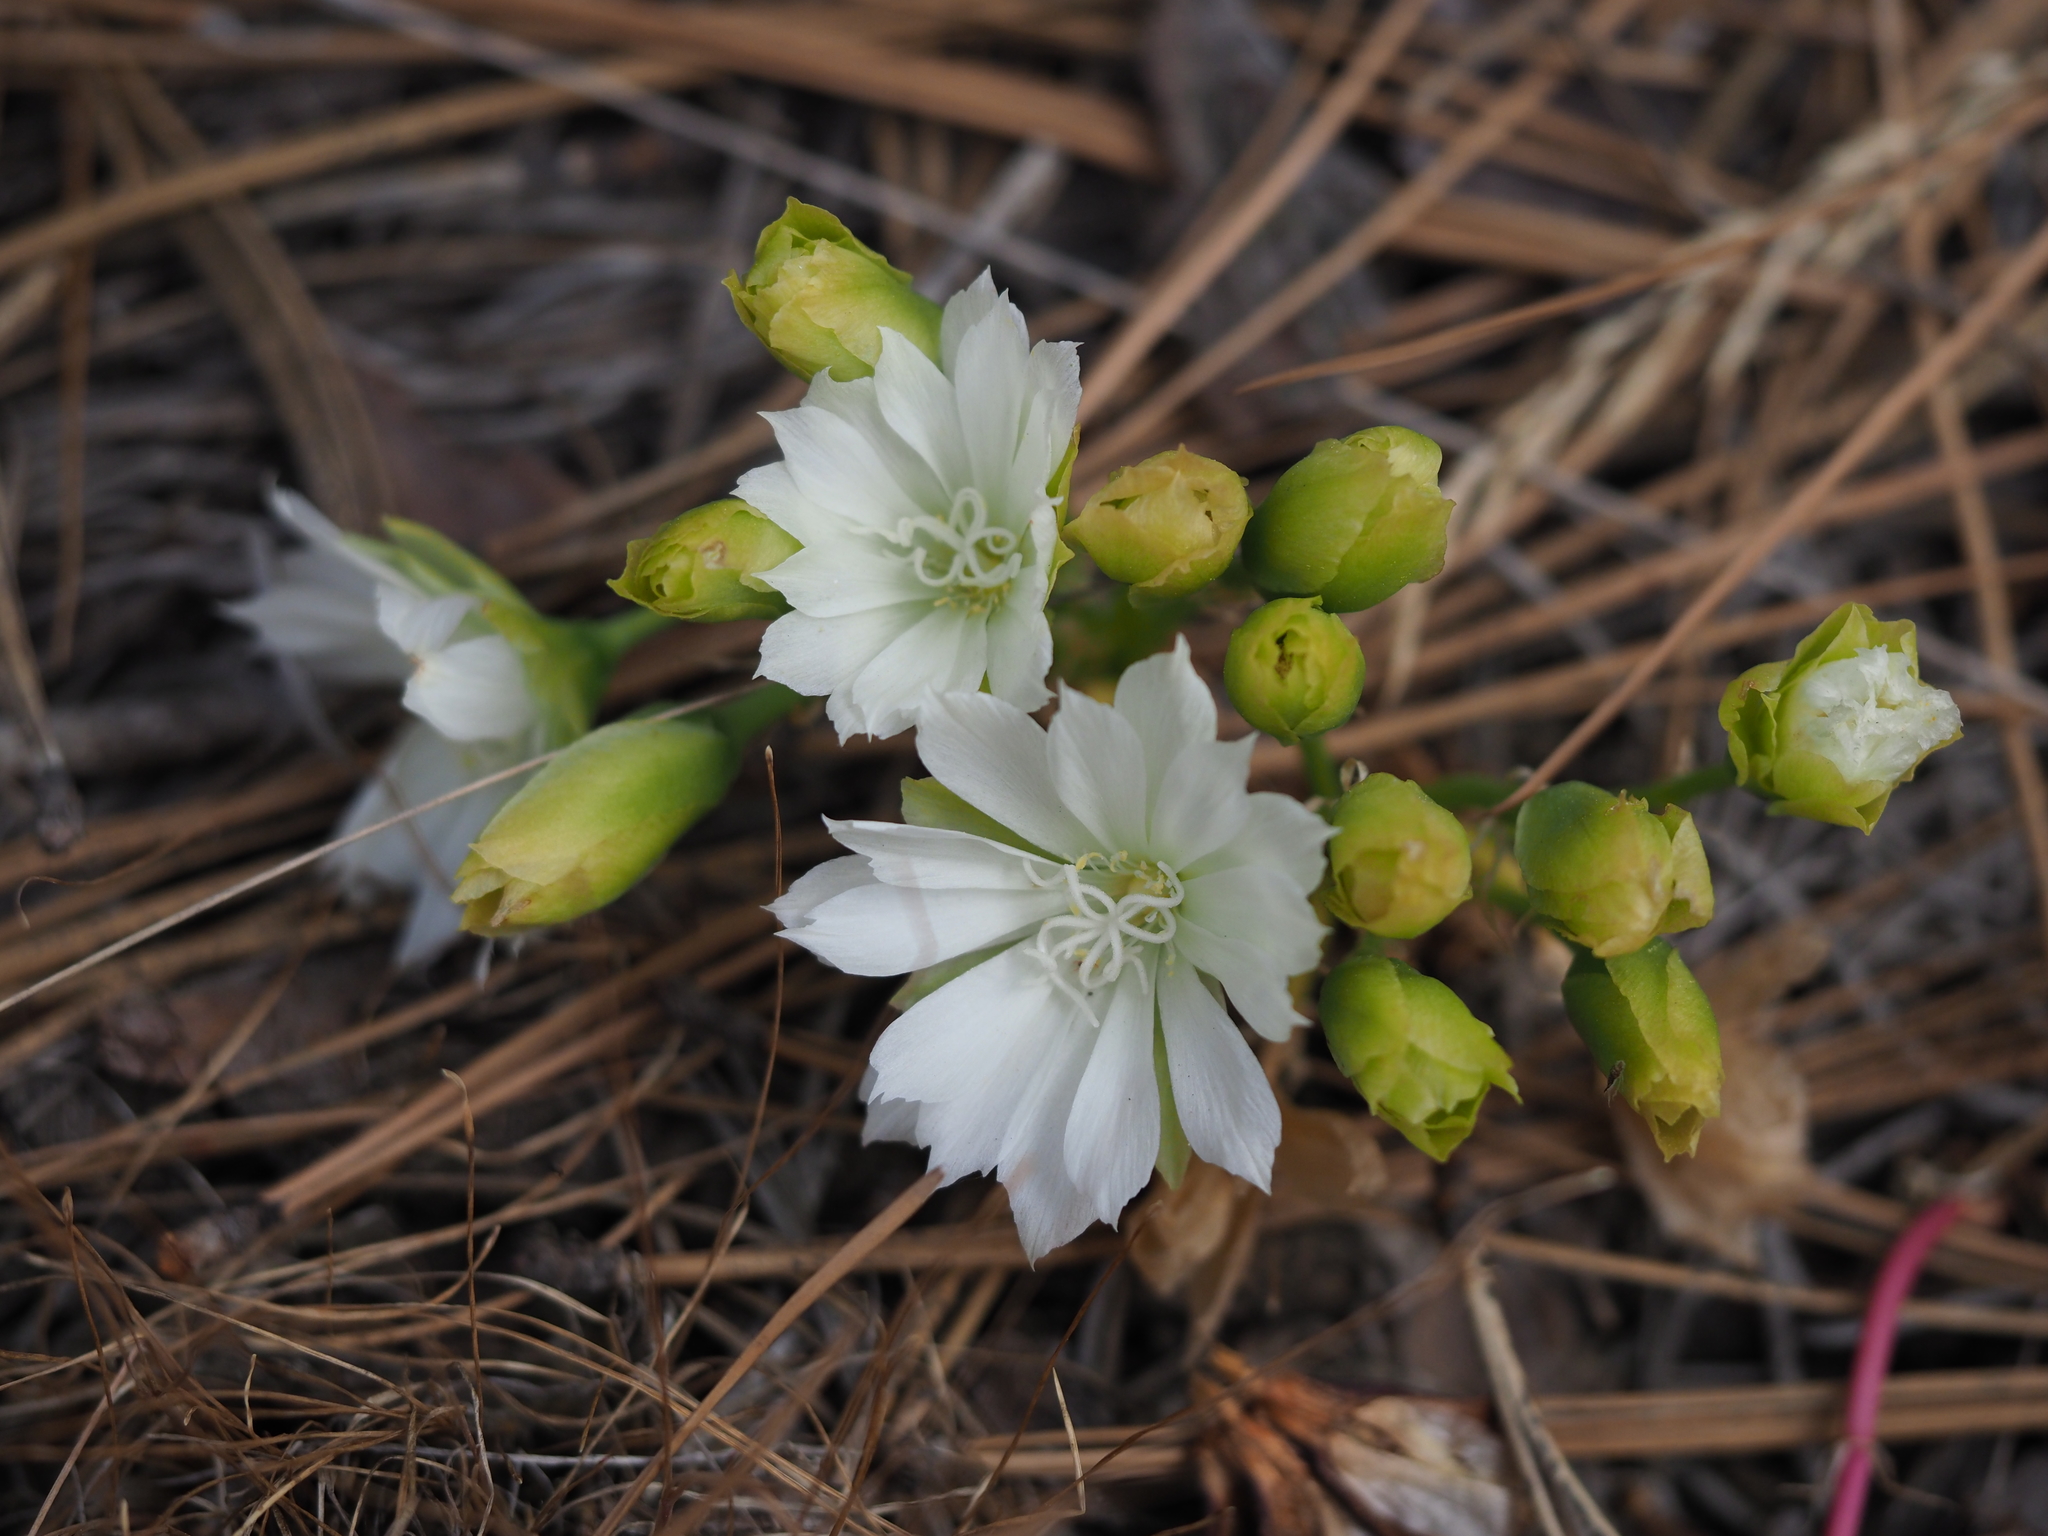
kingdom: Plantae
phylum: Tracheophyta
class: Magnoliopsida
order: Caryophyllales
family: Montiaceae
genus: Lewisia
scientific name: Lewisia rediviva
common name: Bitter-root
